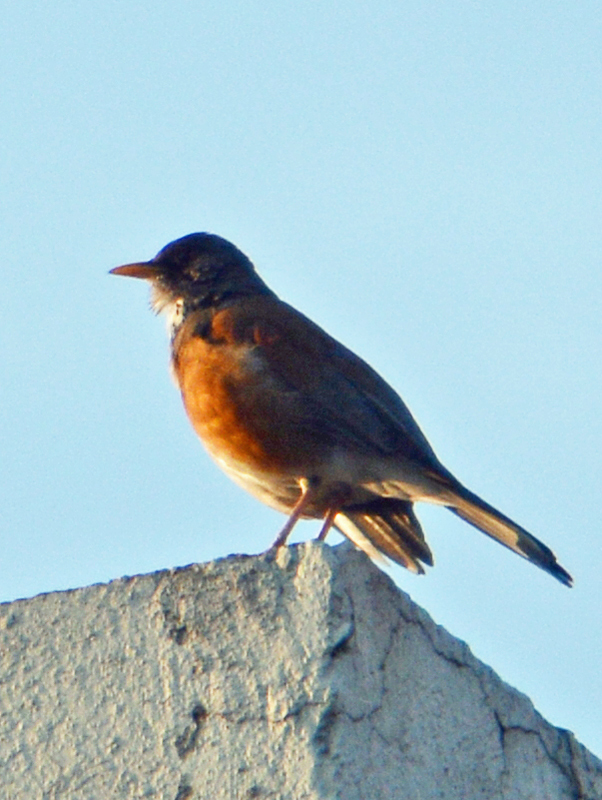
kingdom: Animalia
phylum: Chordata
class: Aves
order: Passeriformes
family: Turdidae
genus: Turdus
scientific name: Turdus rufopalliatus
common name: Rufous-backed robin
